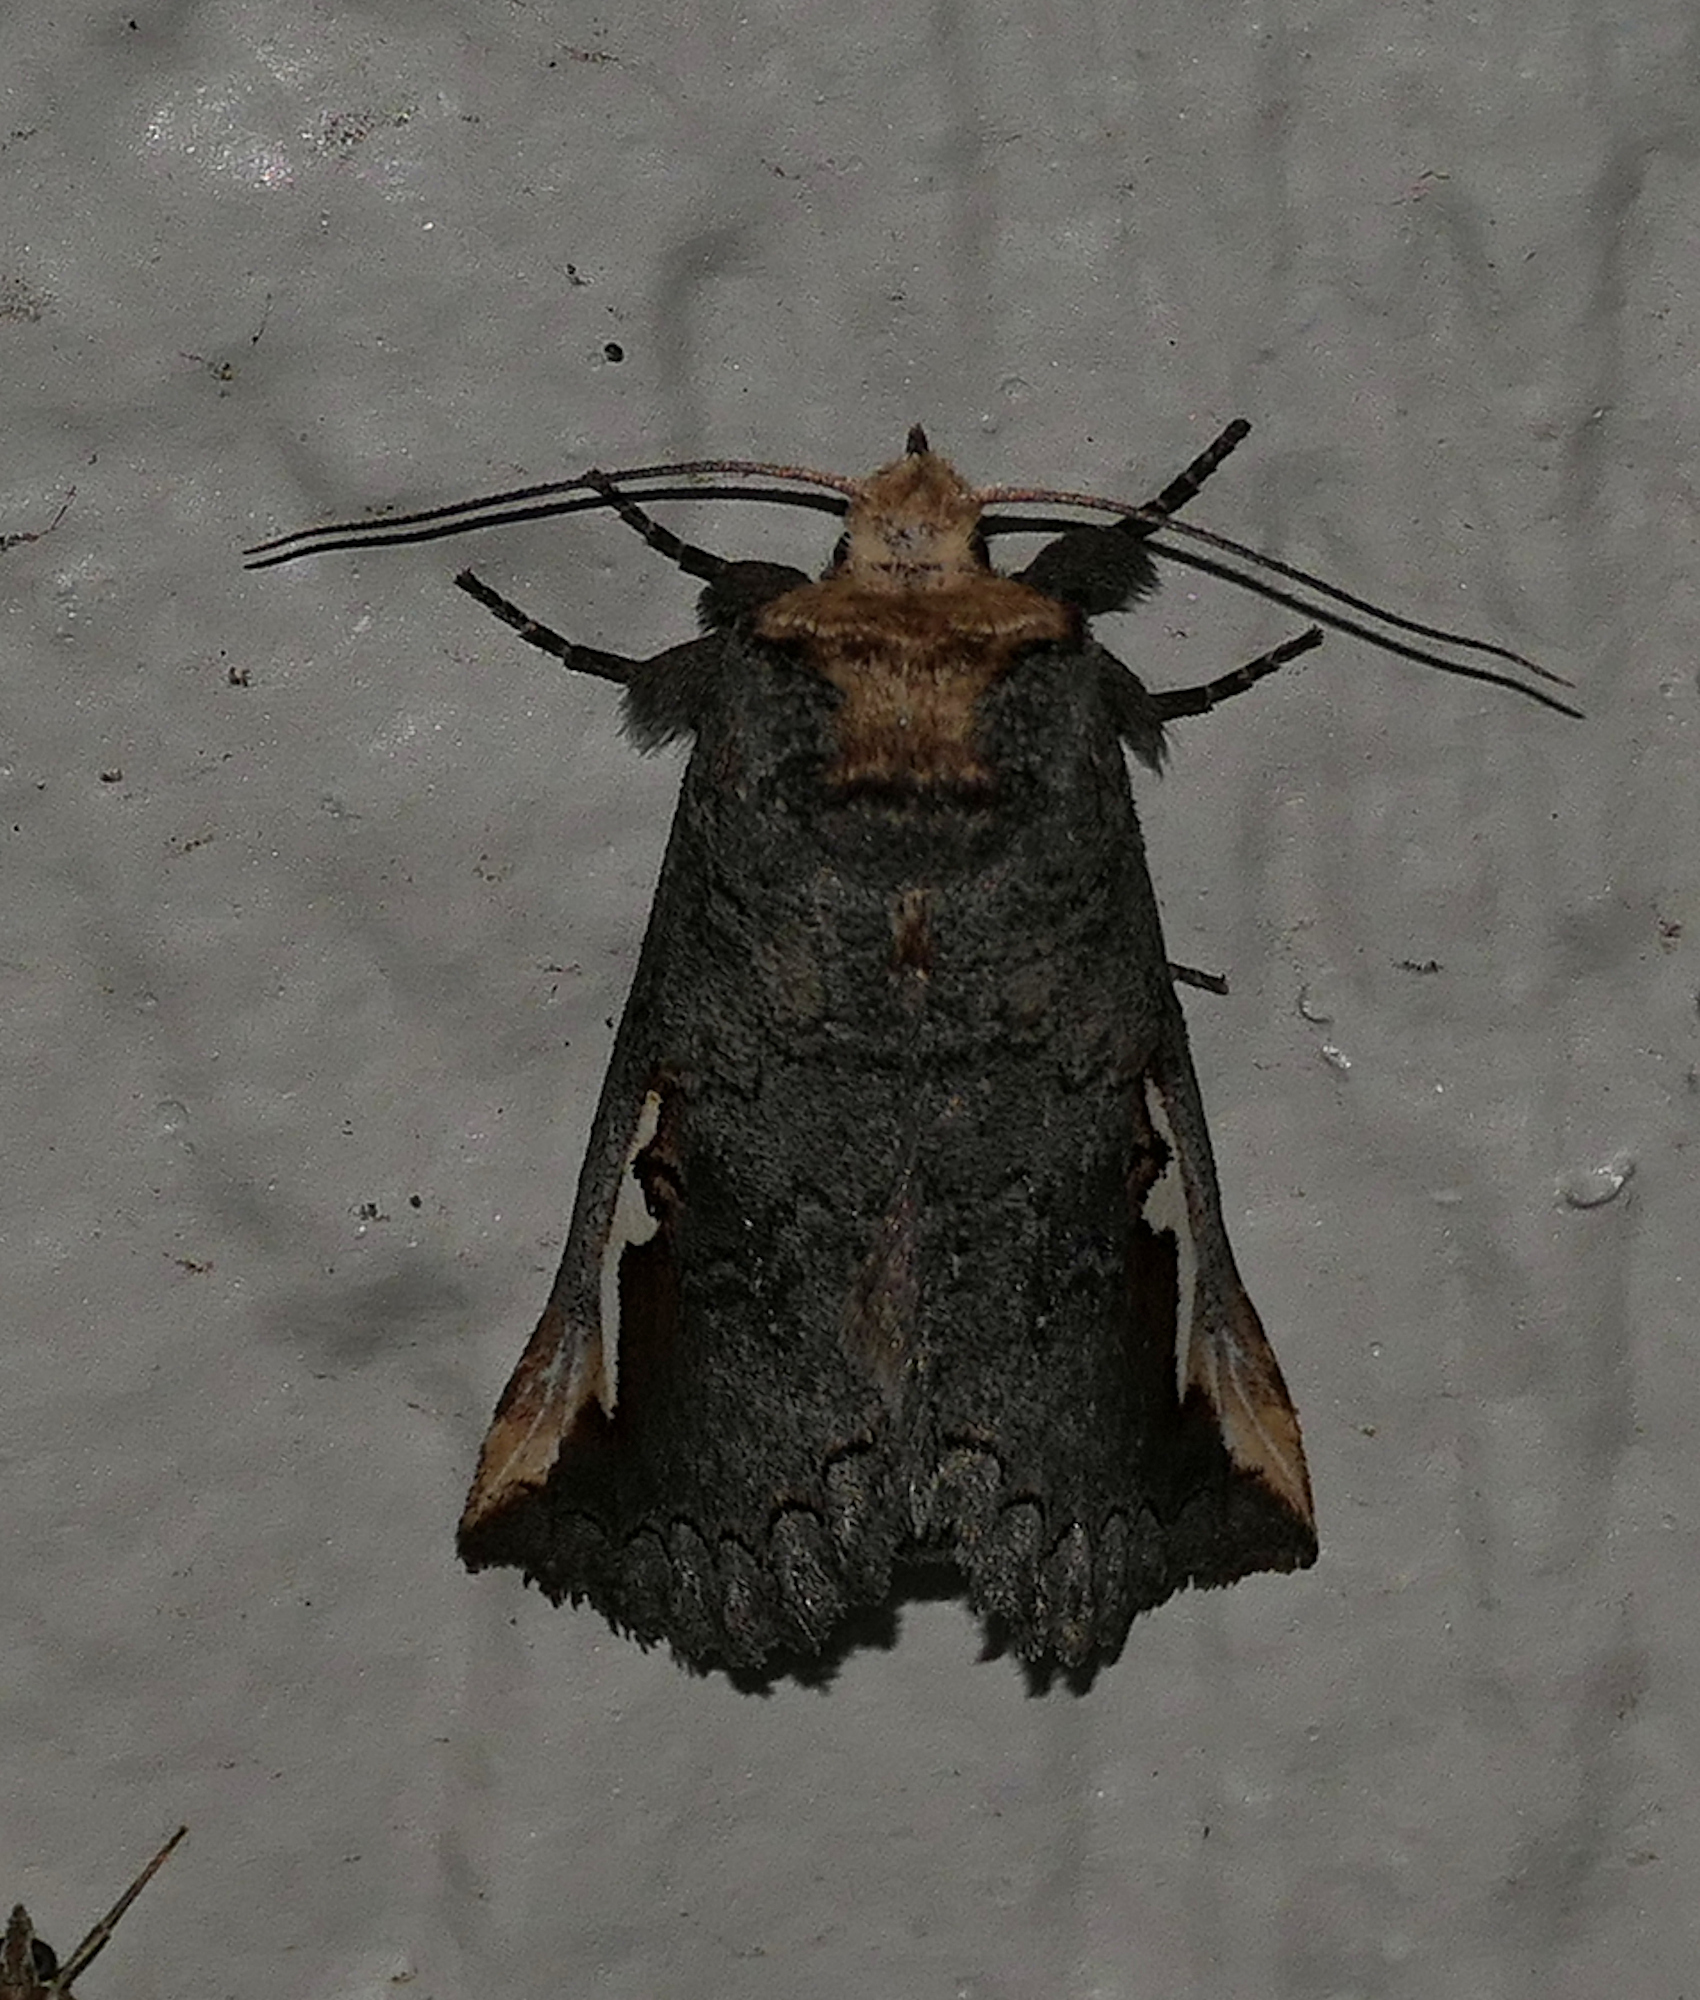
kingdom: Animalia
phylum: Arthropoda
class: Insecta
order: Lepidoptera
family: Notodontidae
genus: Symmerista
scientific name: Symmerista zacualpana
